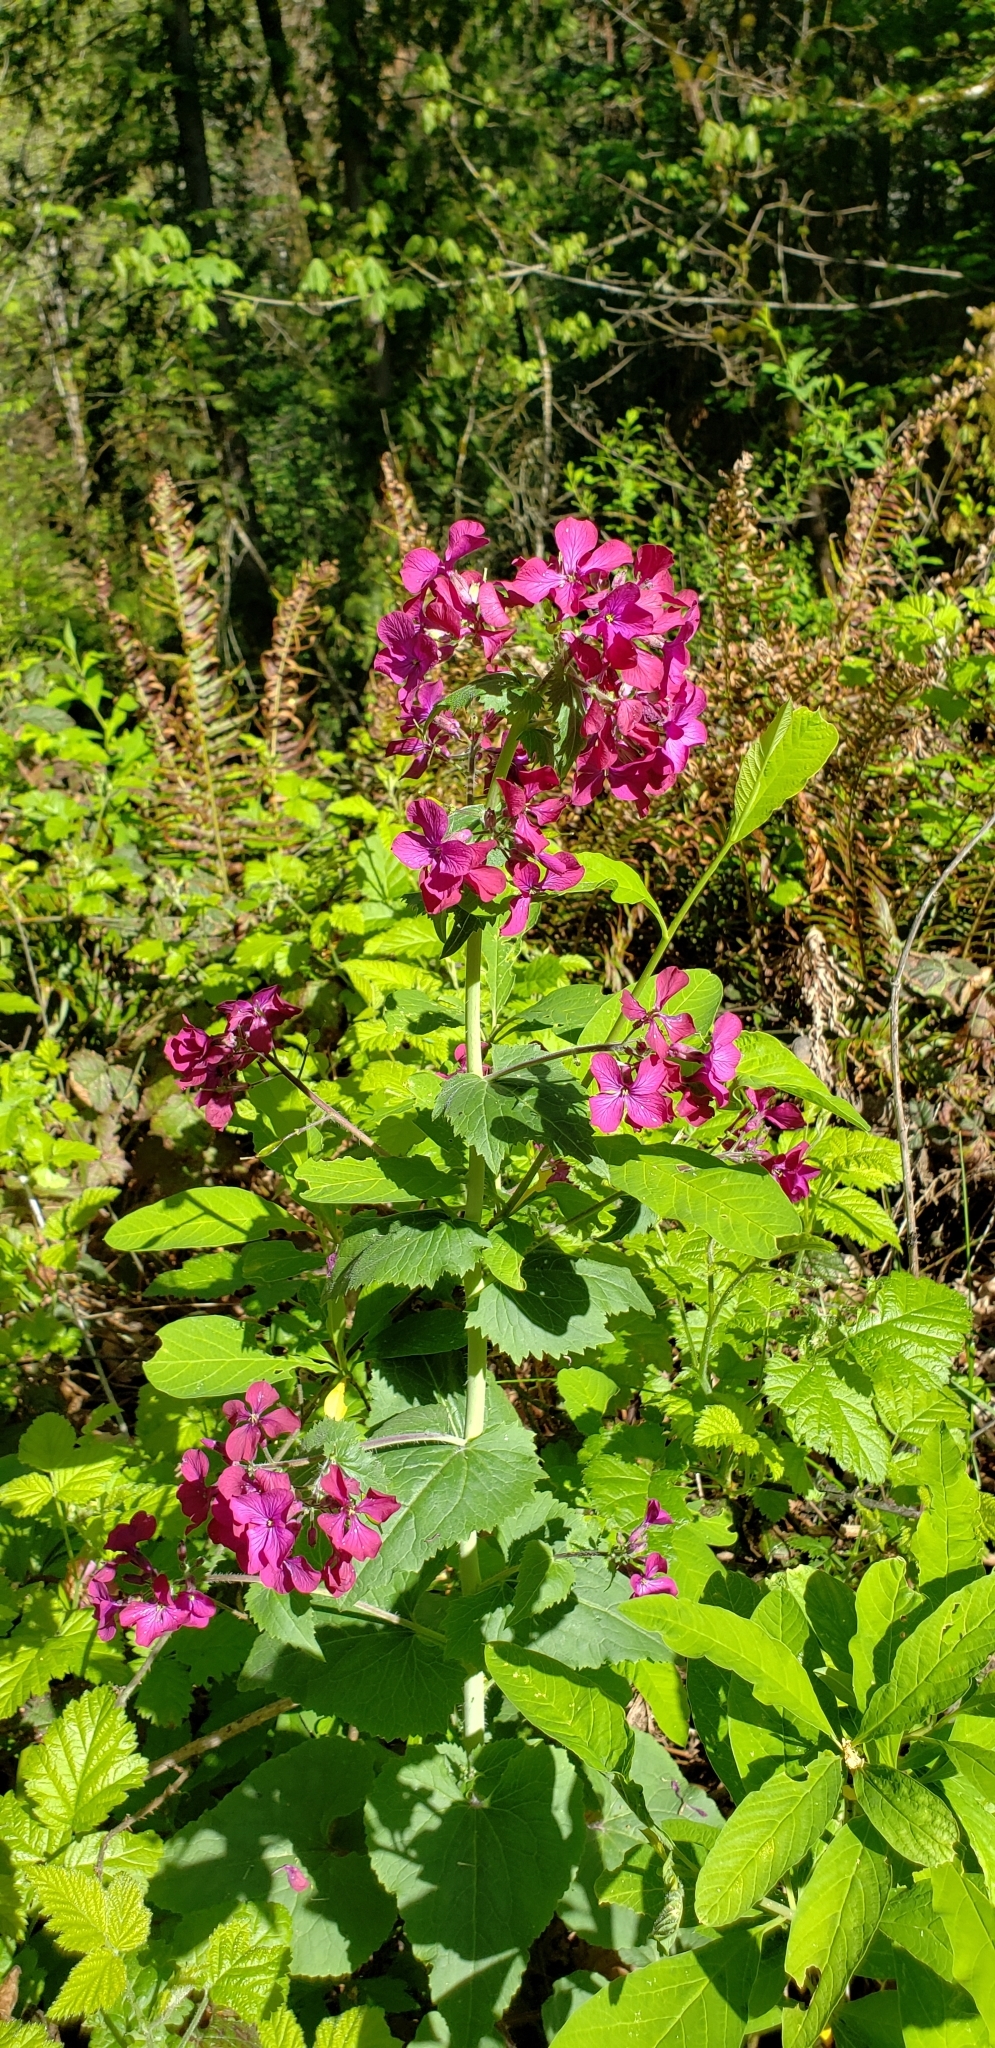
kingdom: Plantae
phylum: Tracheophyta
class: Magnoliopsida
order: Brassicales
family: Brassicaceae
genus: Lunaria
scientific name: Lunaria annua
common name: Honesty
